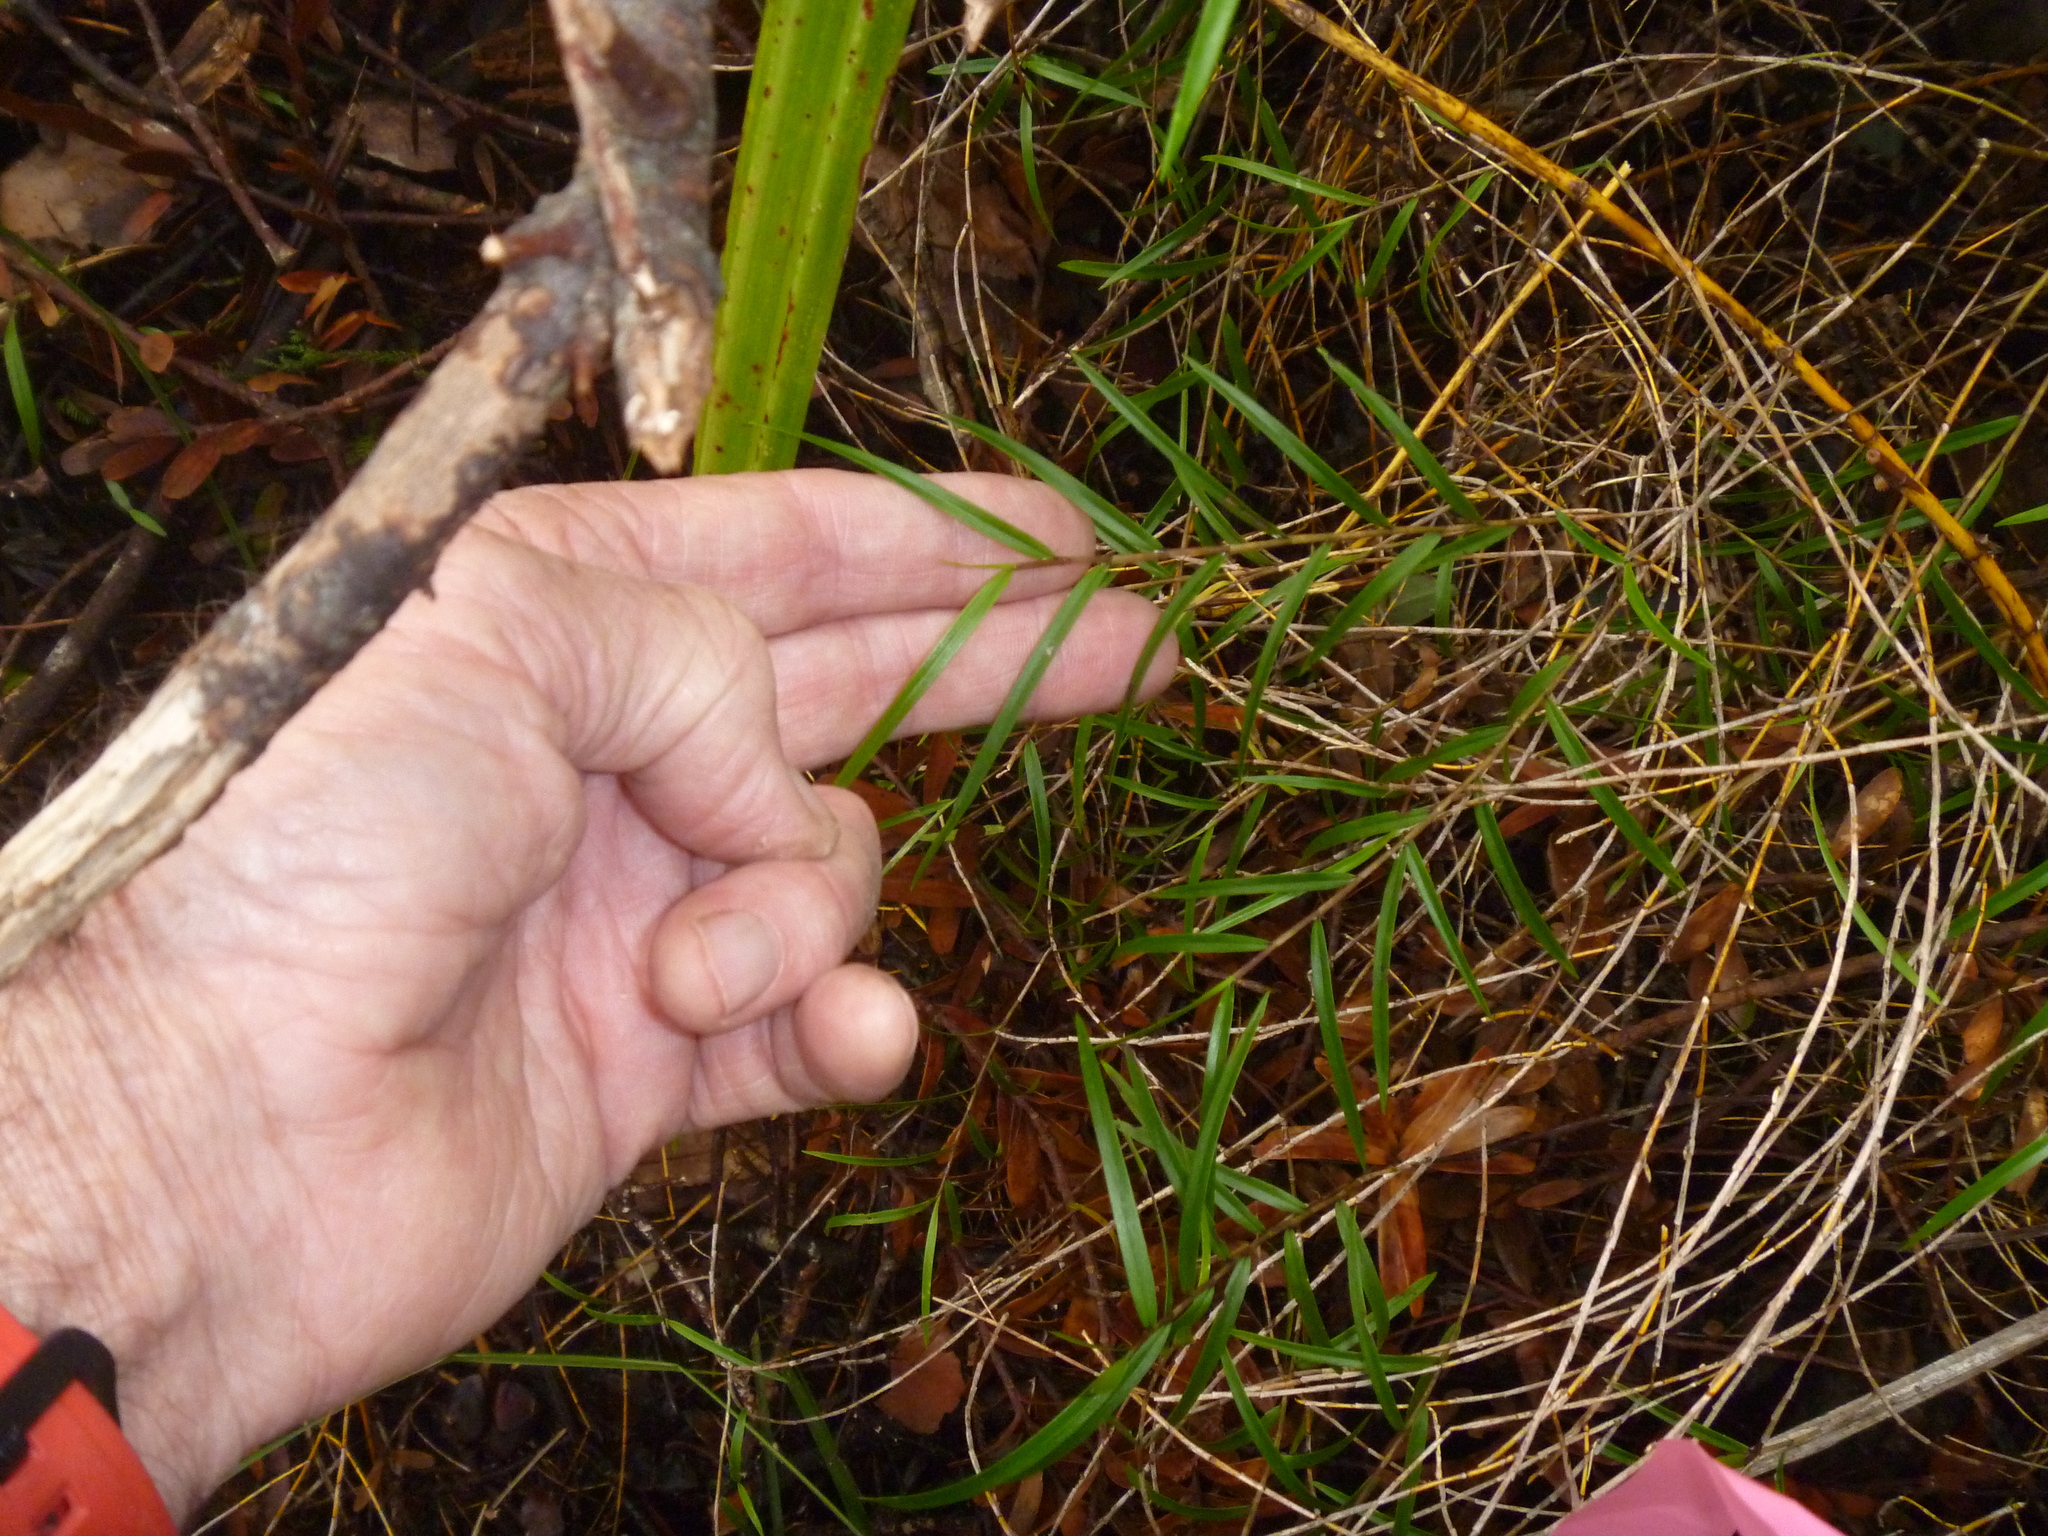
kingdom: Plantae
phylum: Tracheophyta
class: Liliopsida
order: Asparagales
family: Orchidaceae
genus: Dendrobium
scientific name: Dendrobium cunninghamii
